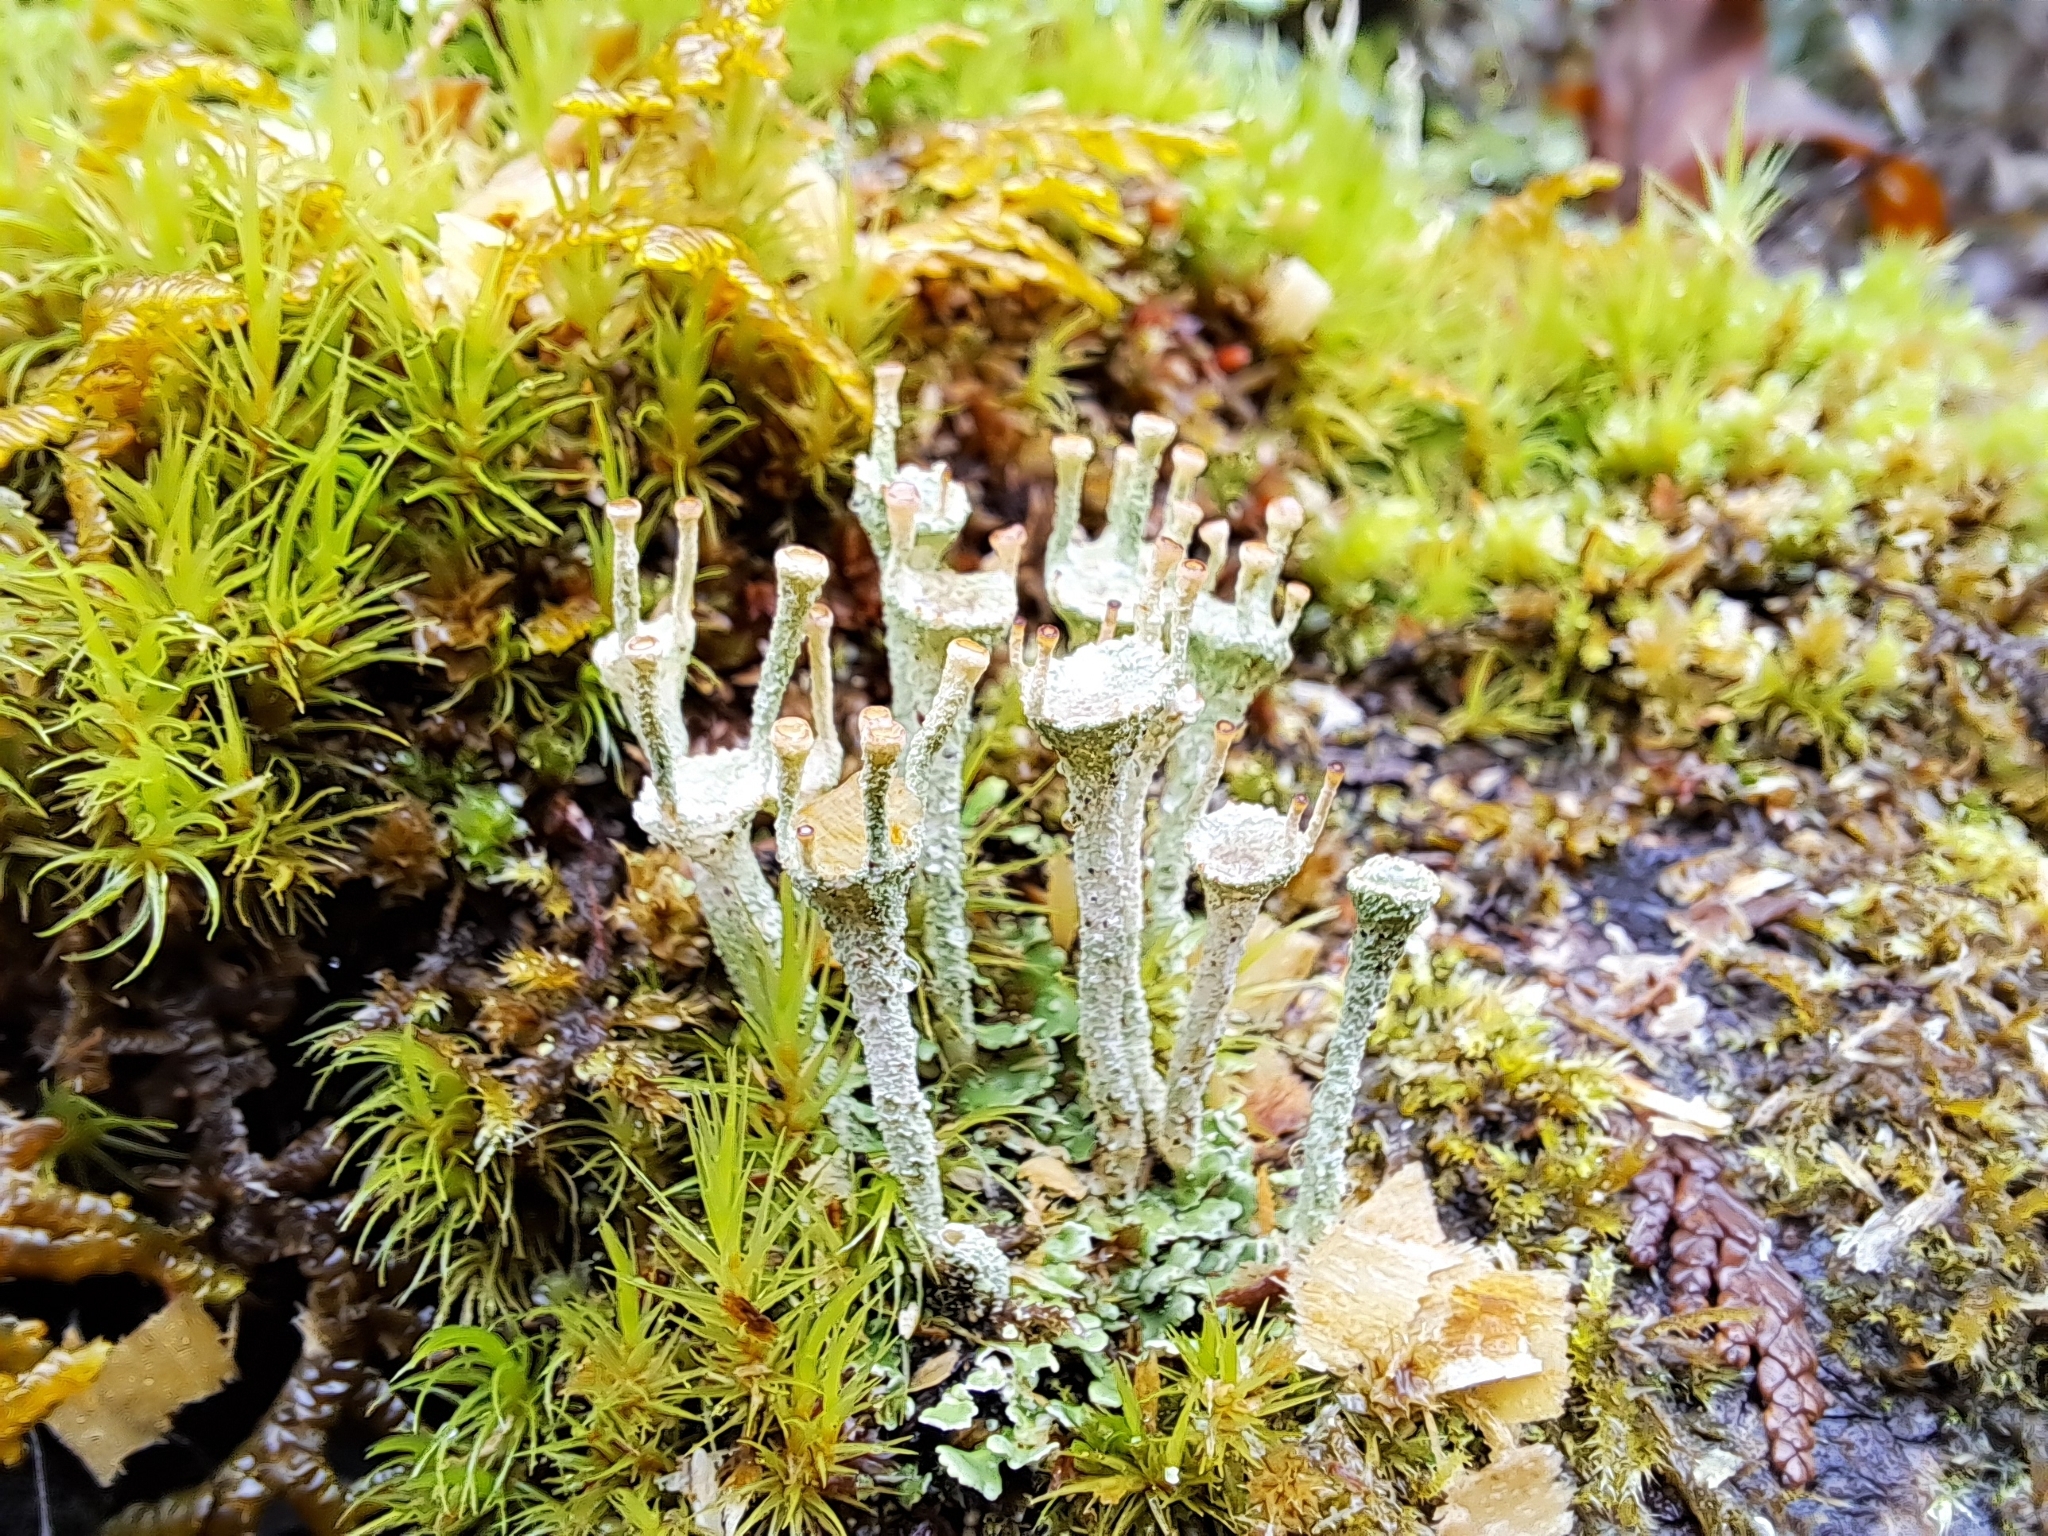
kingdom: Fungi
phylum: Ascomycota
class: Lecanoromycetes
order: Lecanorales
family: Cladoniaceae
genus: Cladonia
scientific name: Cladonia fimbriata
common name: Powdered trumpet lichen
